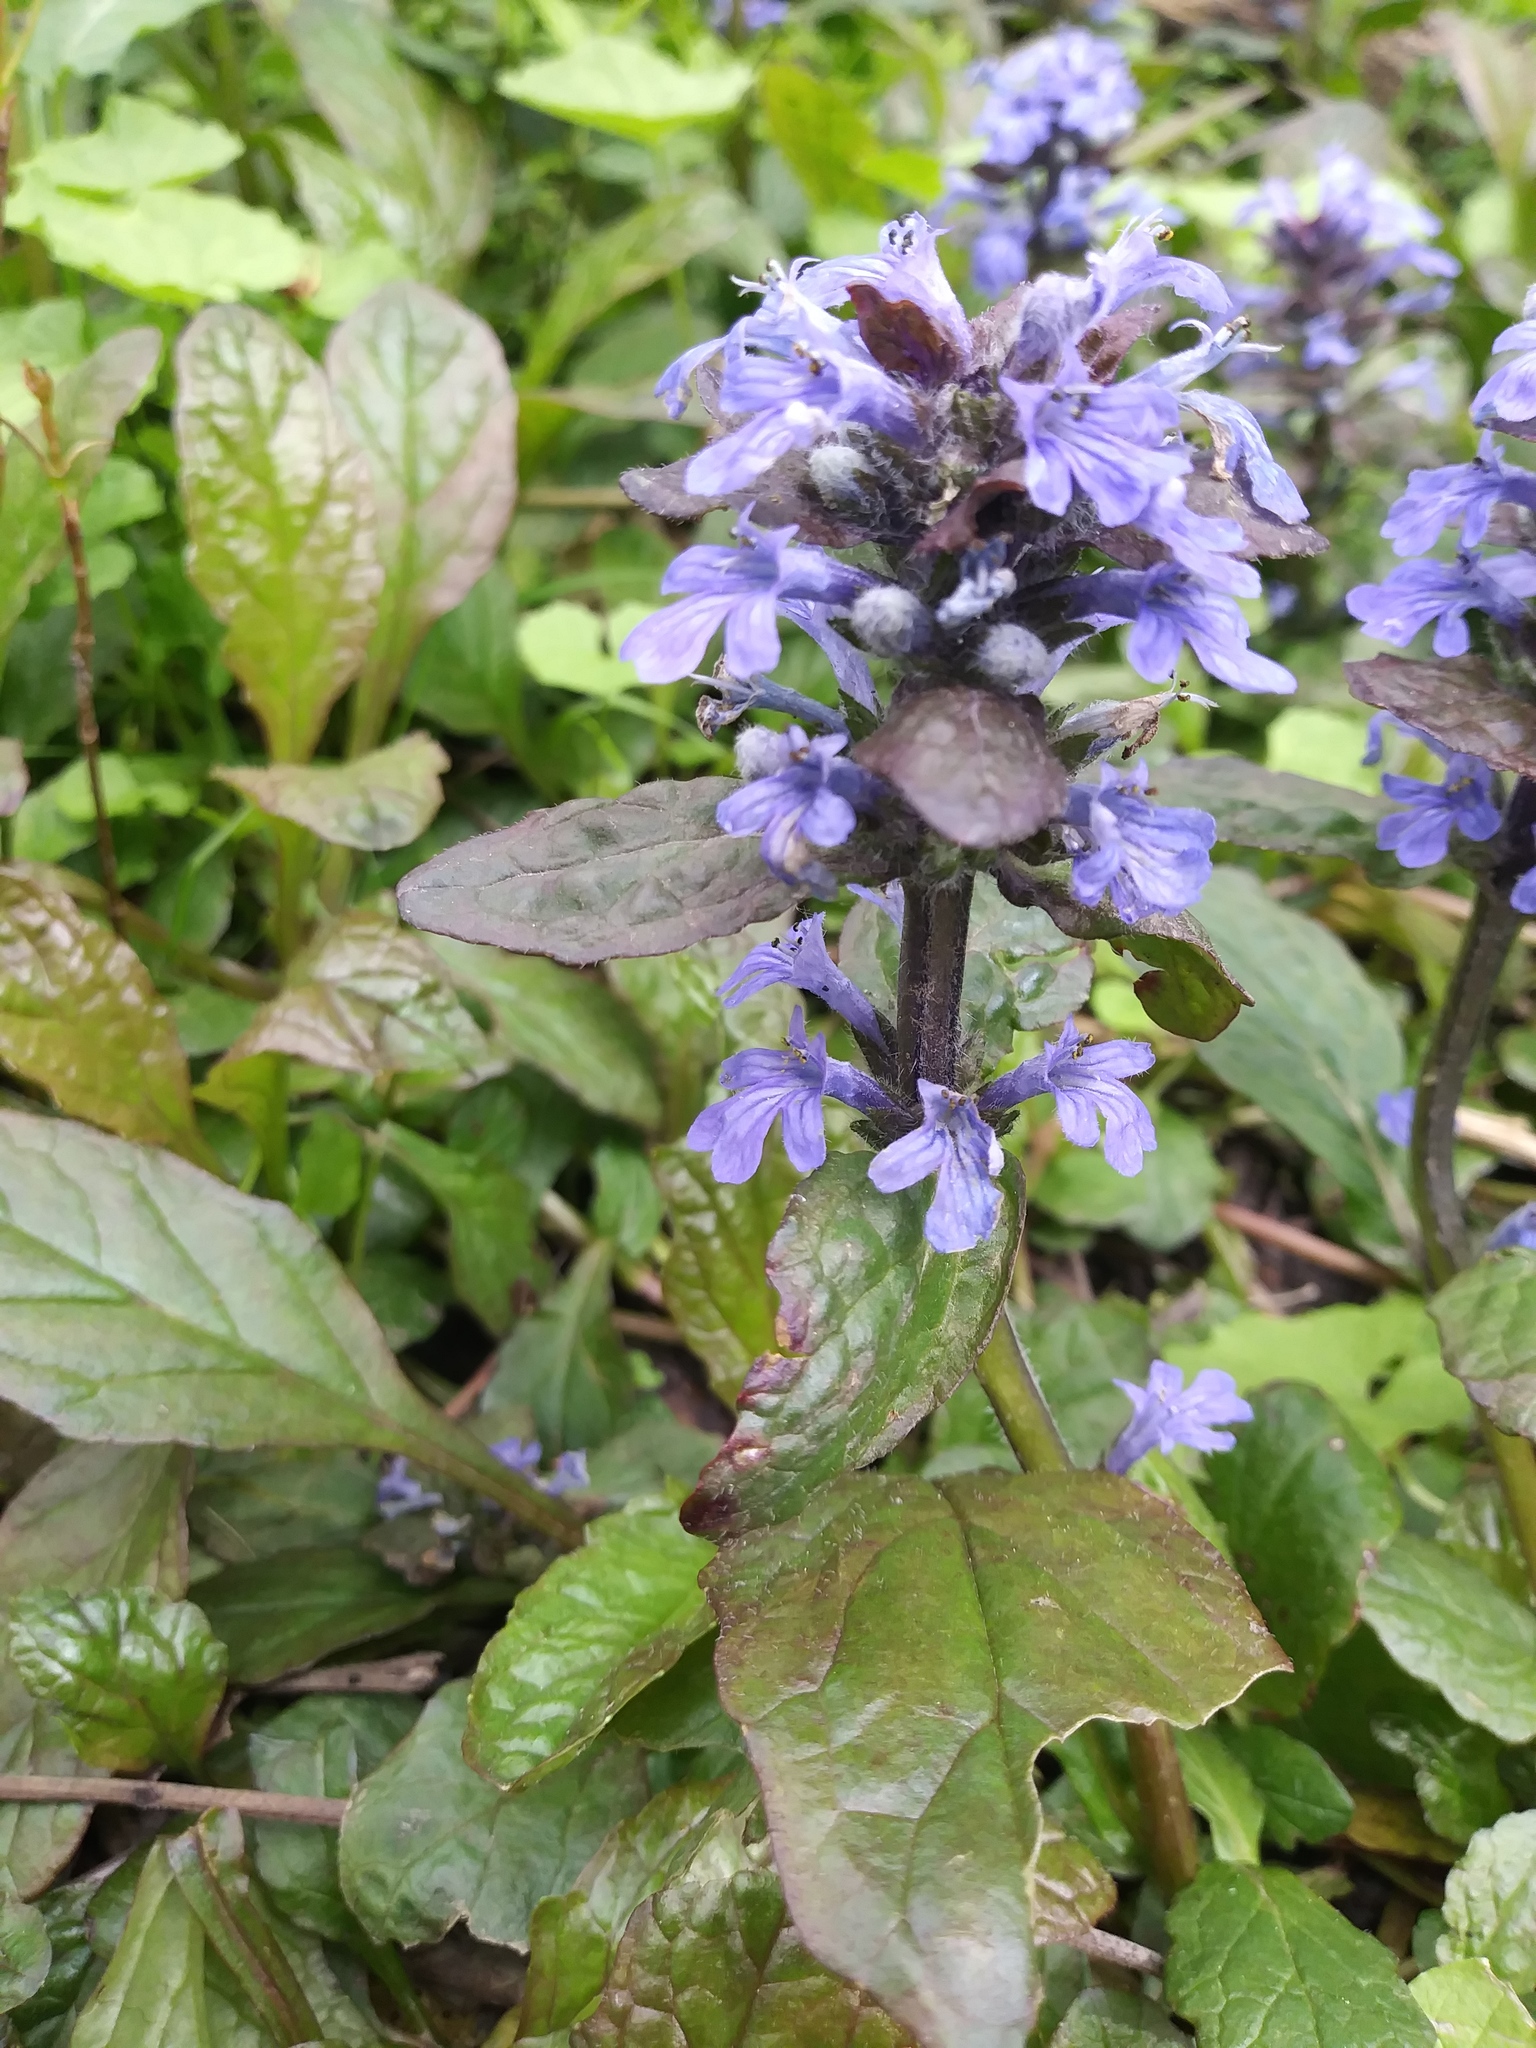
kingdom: Plantae
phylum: Tracheophyta
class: Magnoliopsida
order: Lamiales
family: Lamiaceae
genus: Ajuga
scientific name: Ajuga reptans
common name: Bugle
